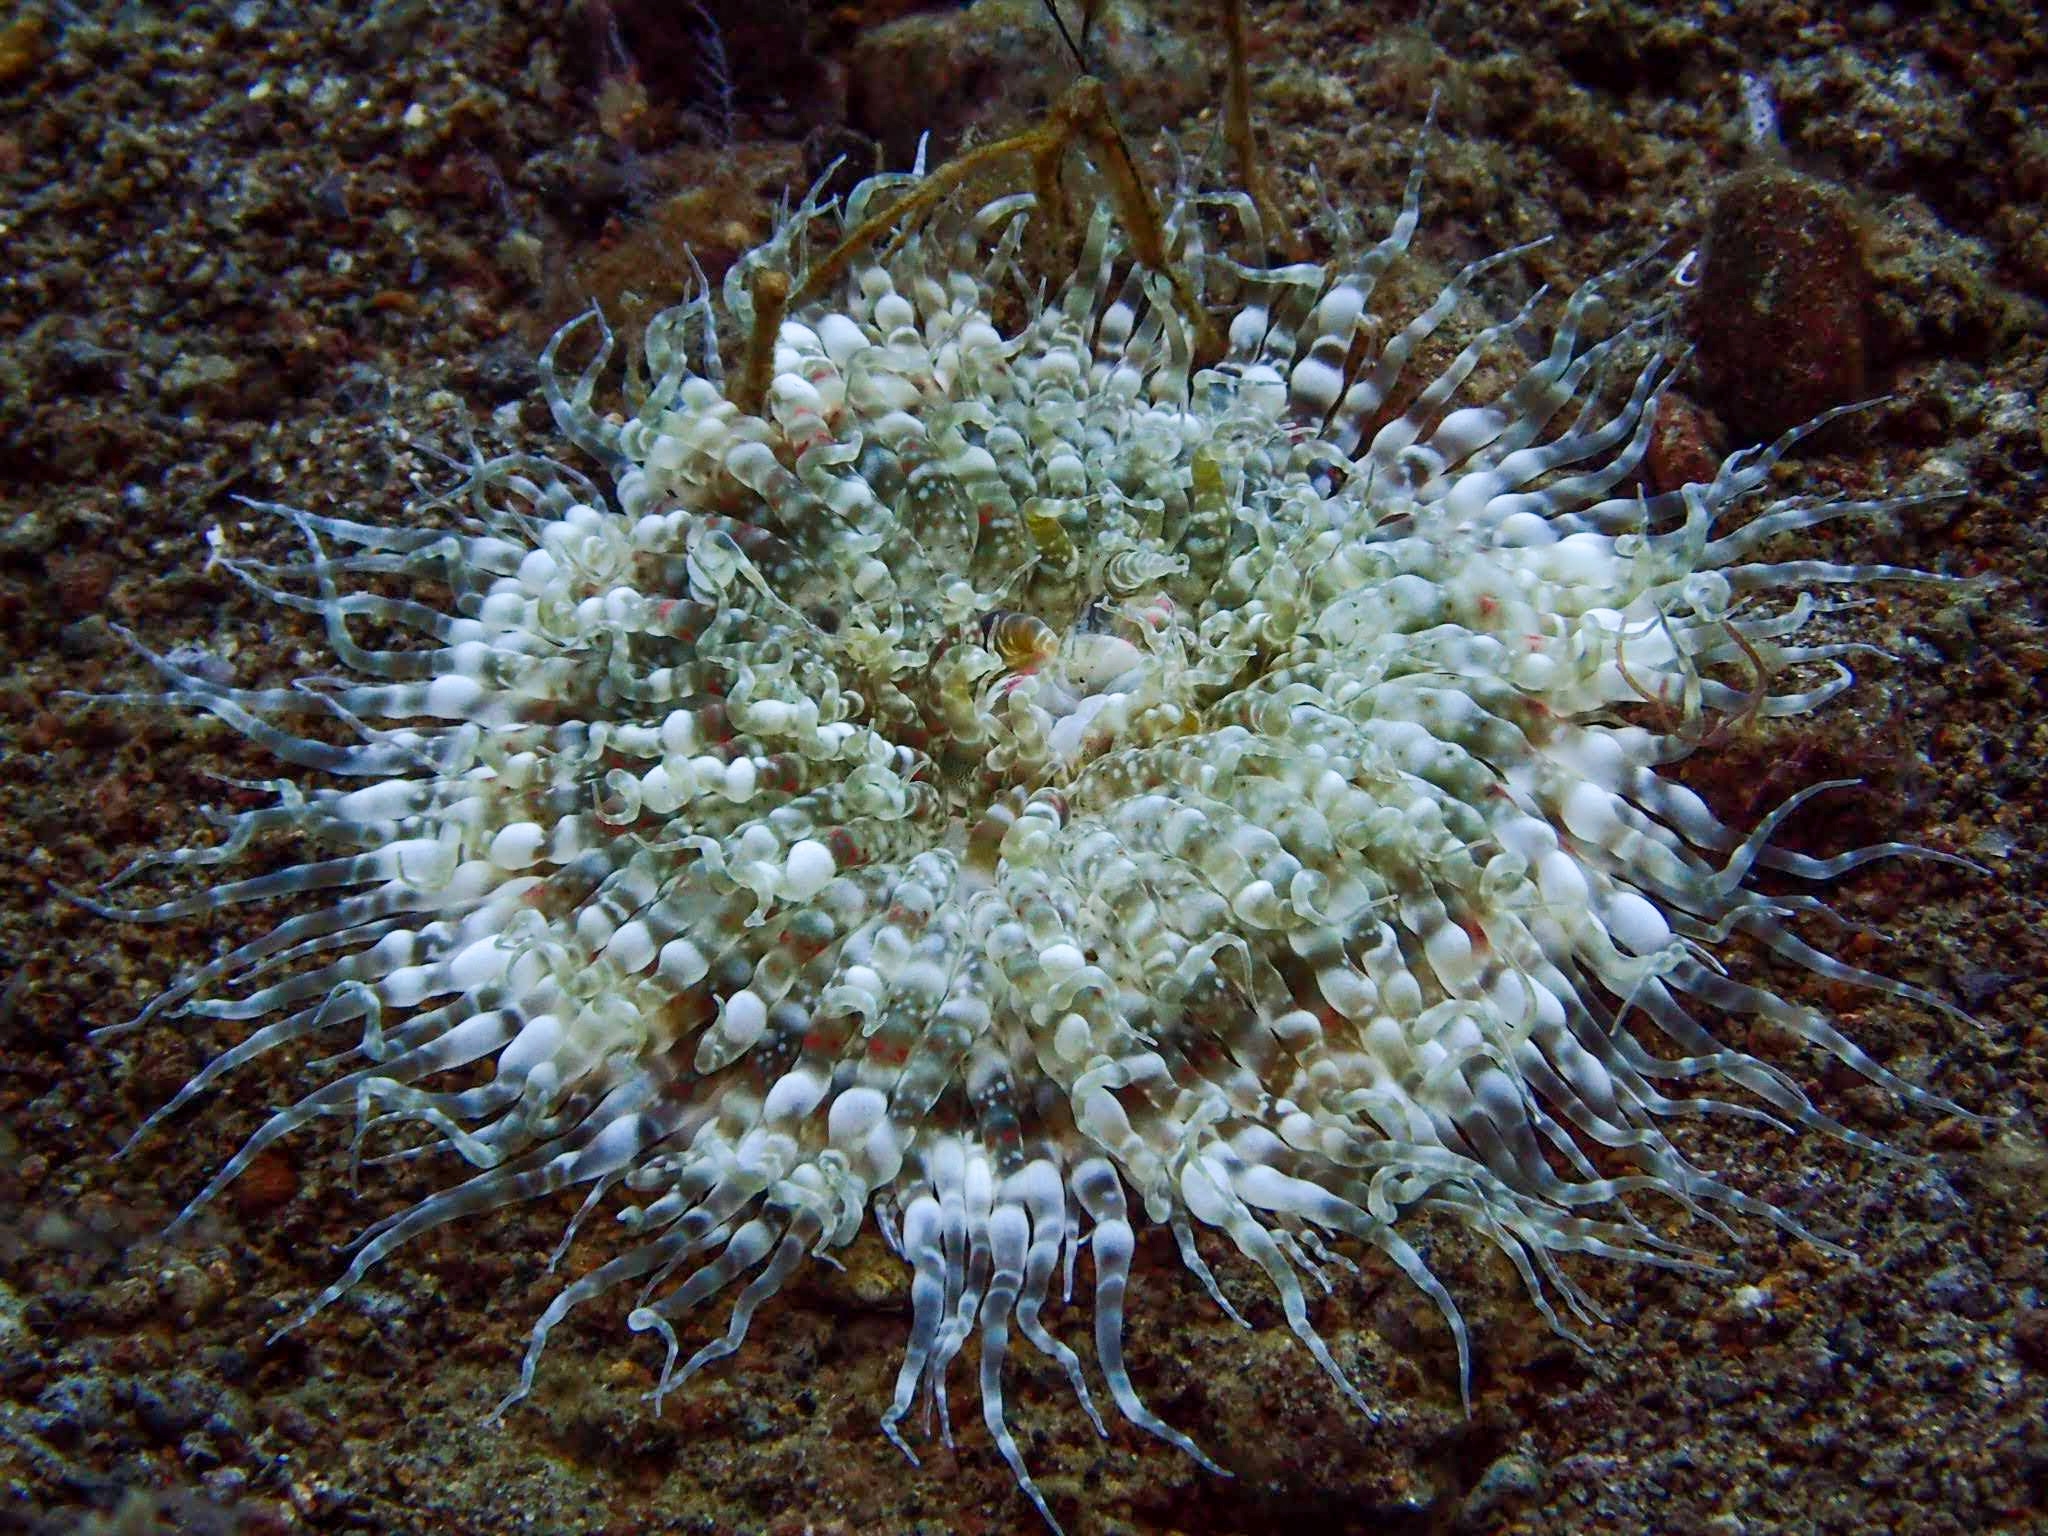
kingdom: Animalia
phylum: Cnidaria
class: Anthozoa
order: Actiniaria
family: Boloceroididae
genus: Boloceroides
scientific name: Boloceroides mcmurrichi
